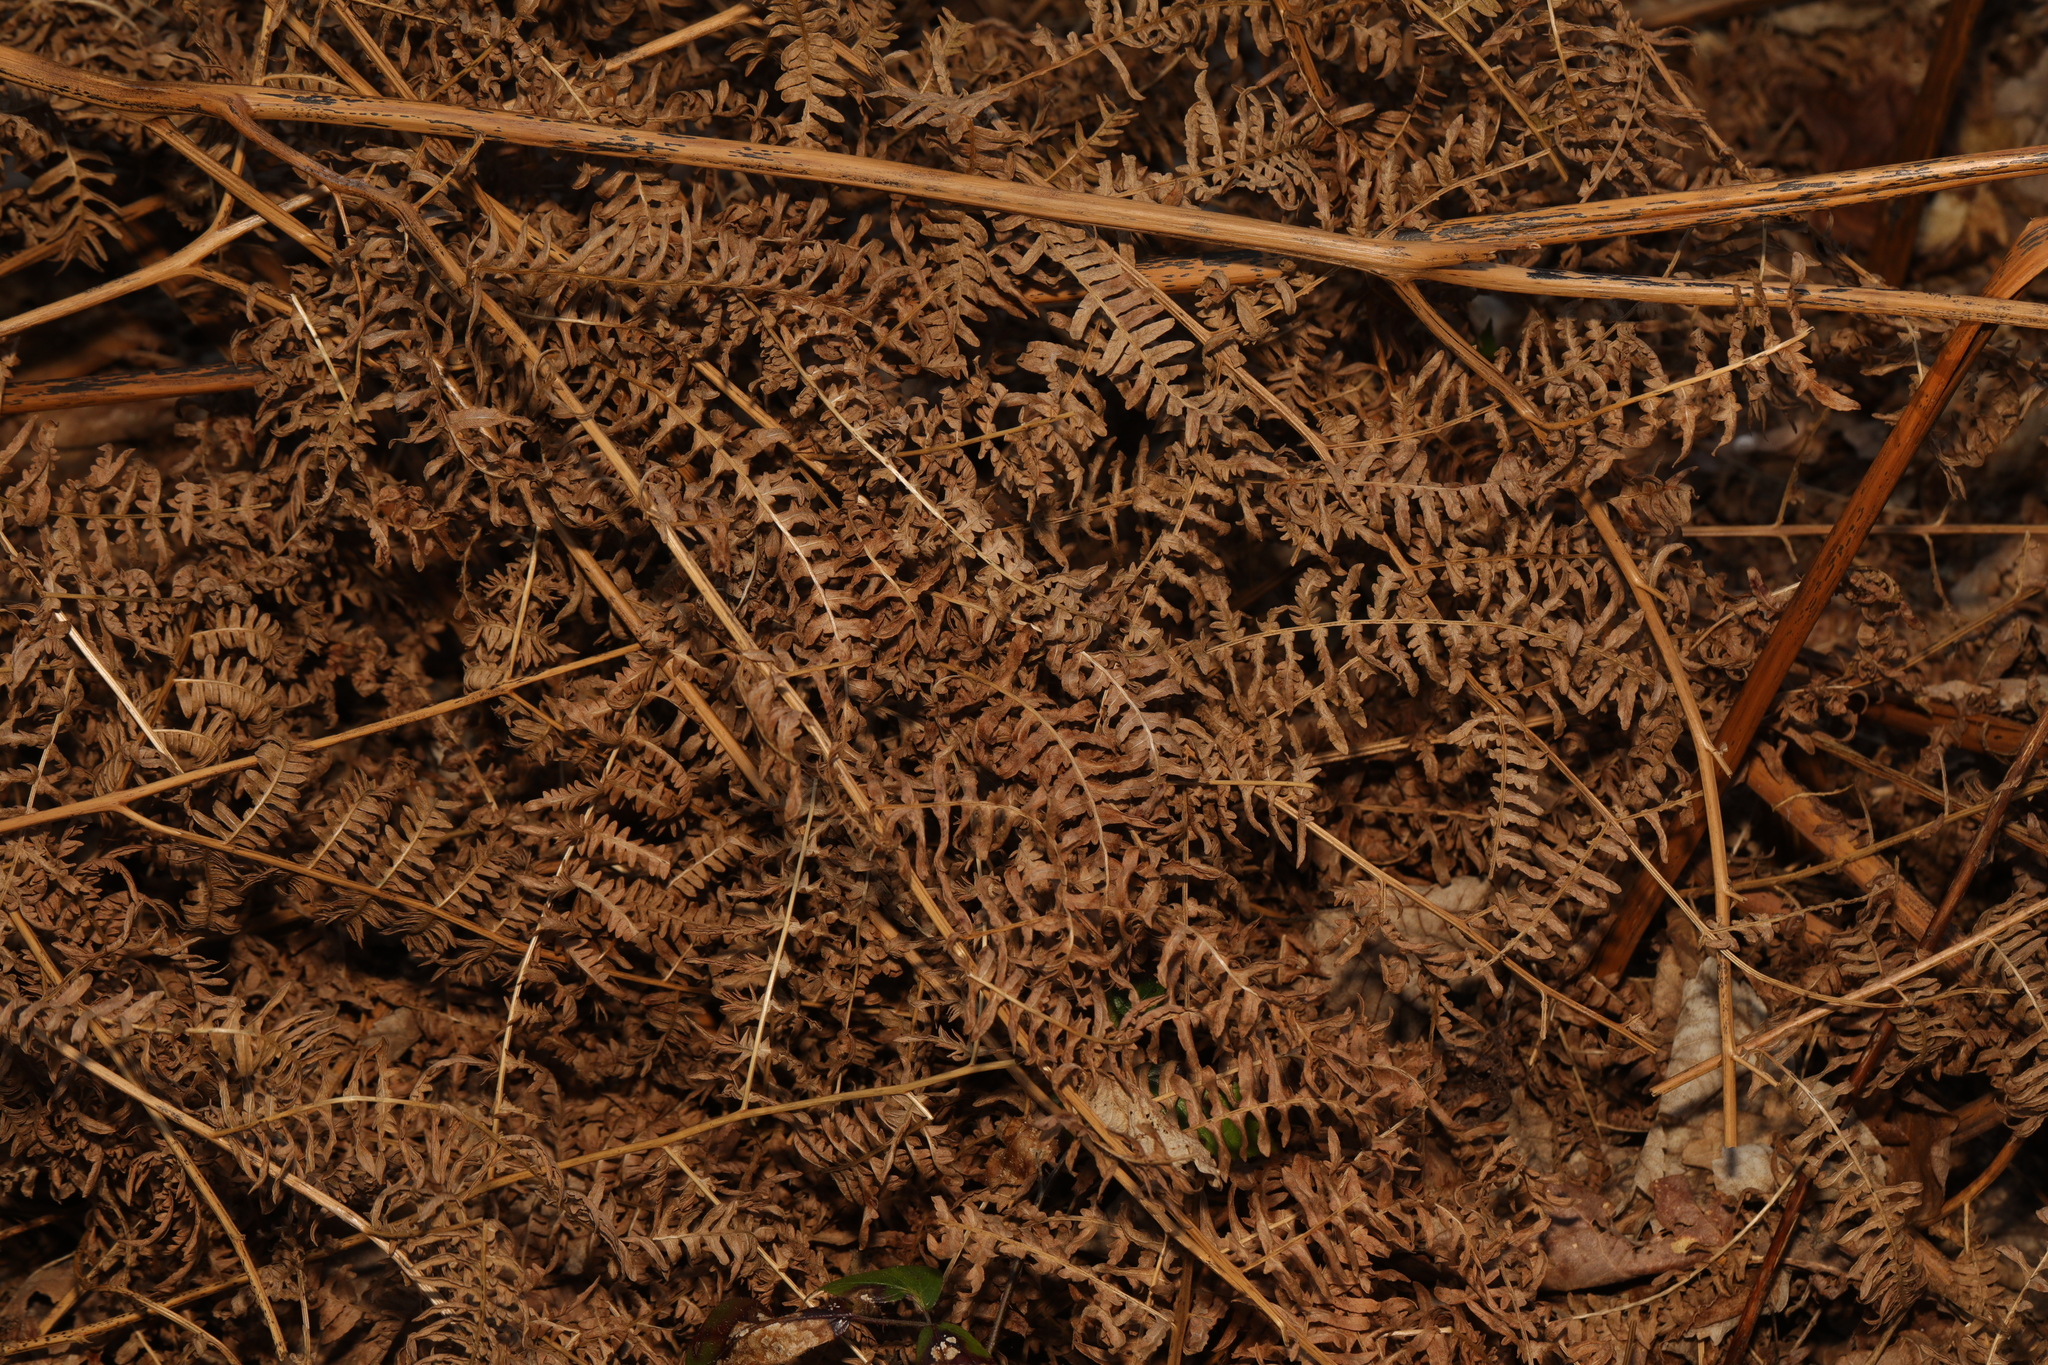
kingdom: Plantae
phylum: Tracheophyta
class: Polypodiopsida
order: Polypodiales
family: Dennstaedtiaceae
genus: Pteridium
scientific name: Pteridium aquilinum
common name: Bracken
